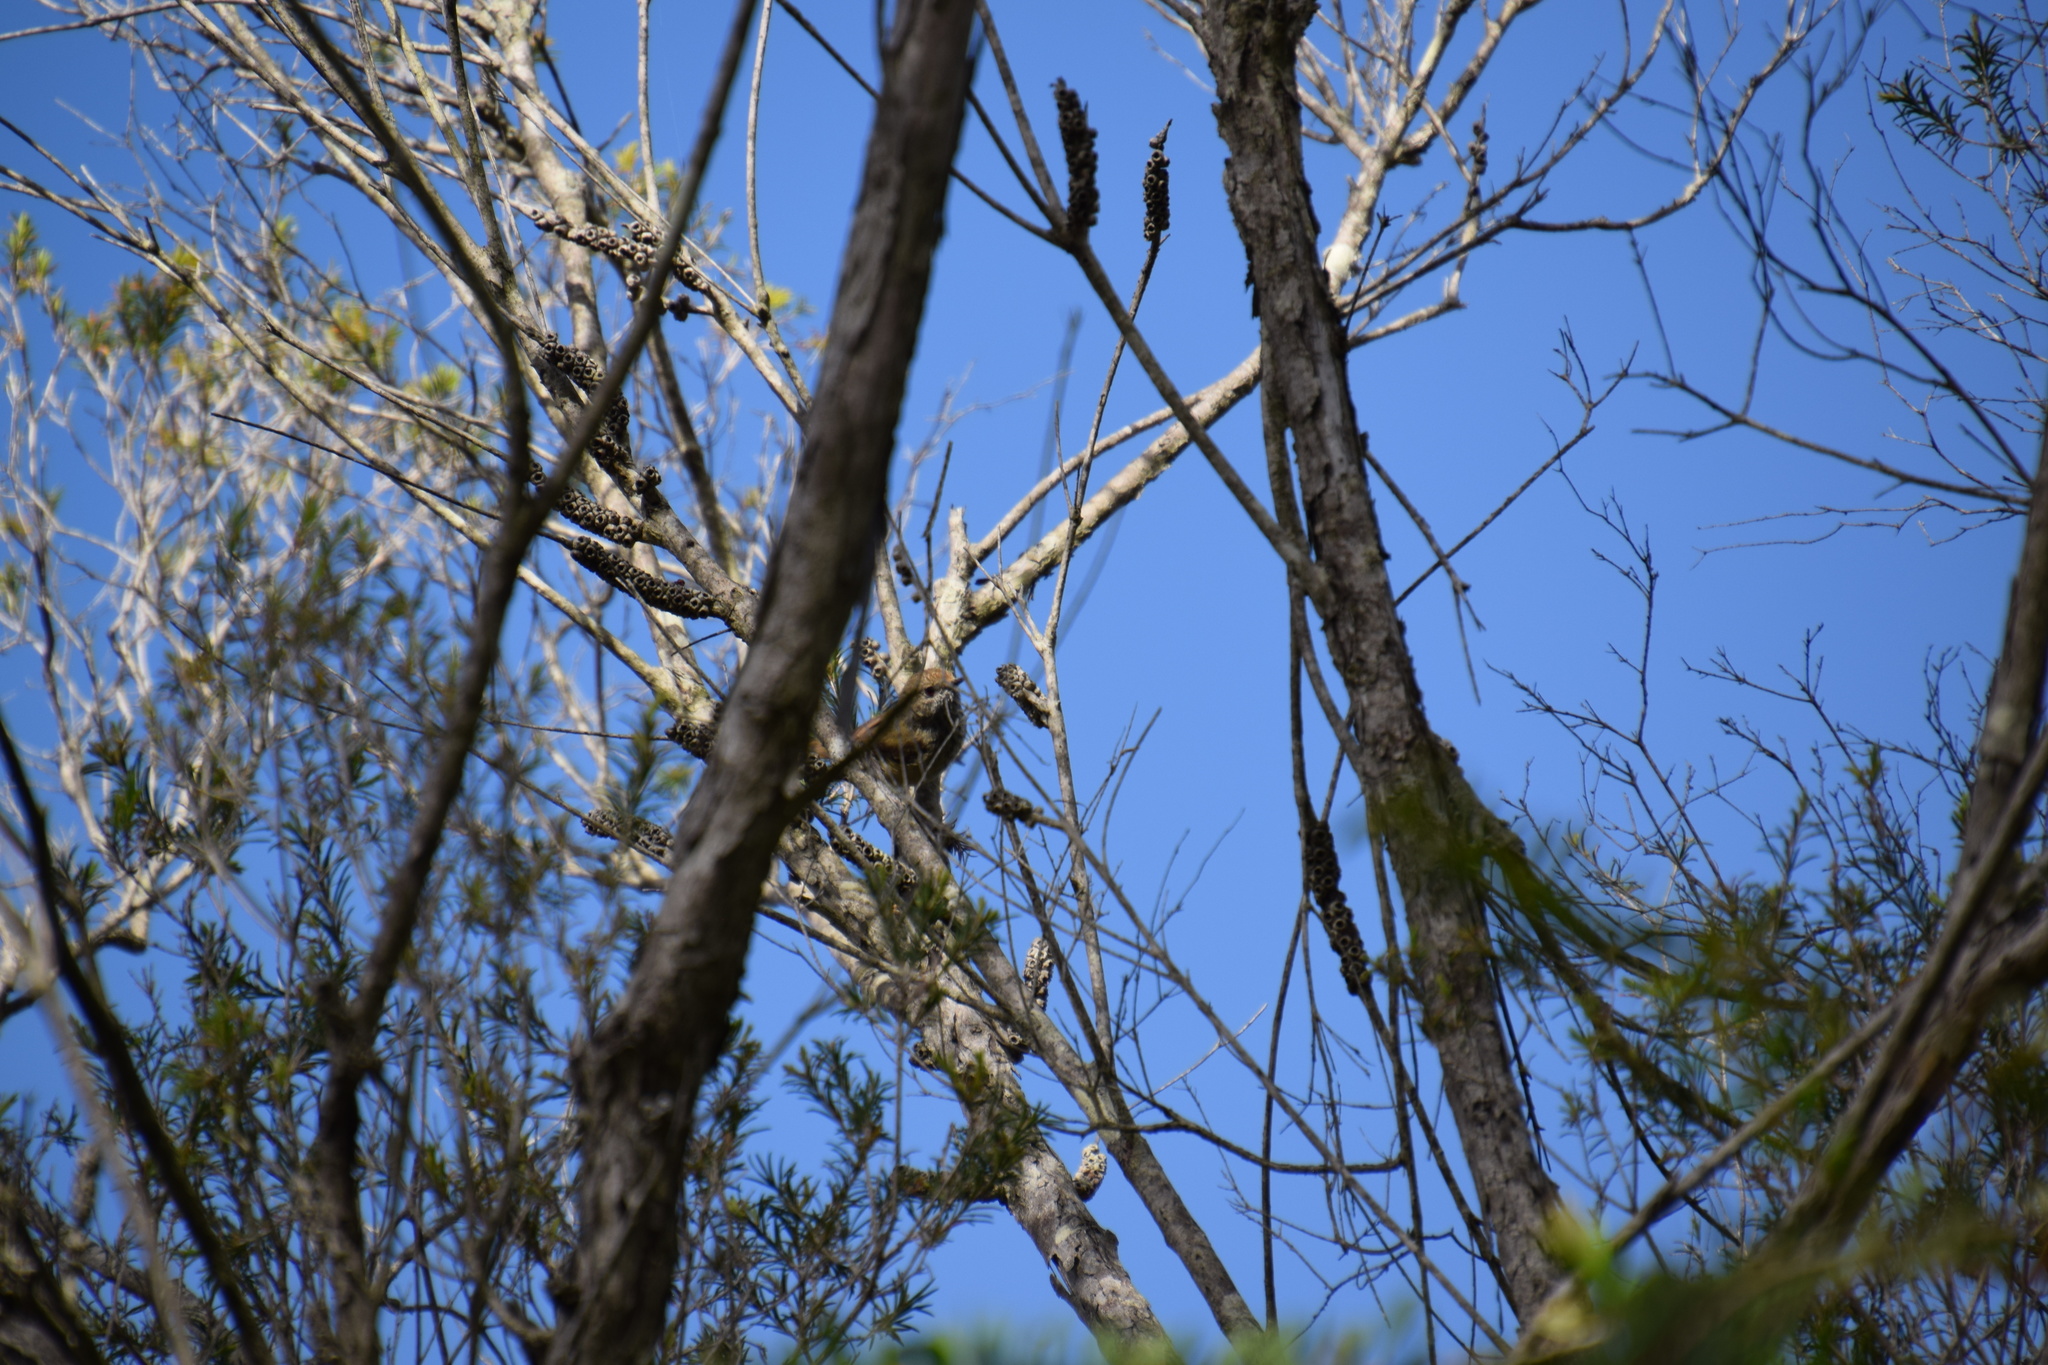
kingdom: Animalia
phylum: Chordata
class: Aves
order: Passeriformes
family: Acanthizidae
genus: Acanthiza
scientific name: Acanthiza pusilla
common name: Brown thornbill
